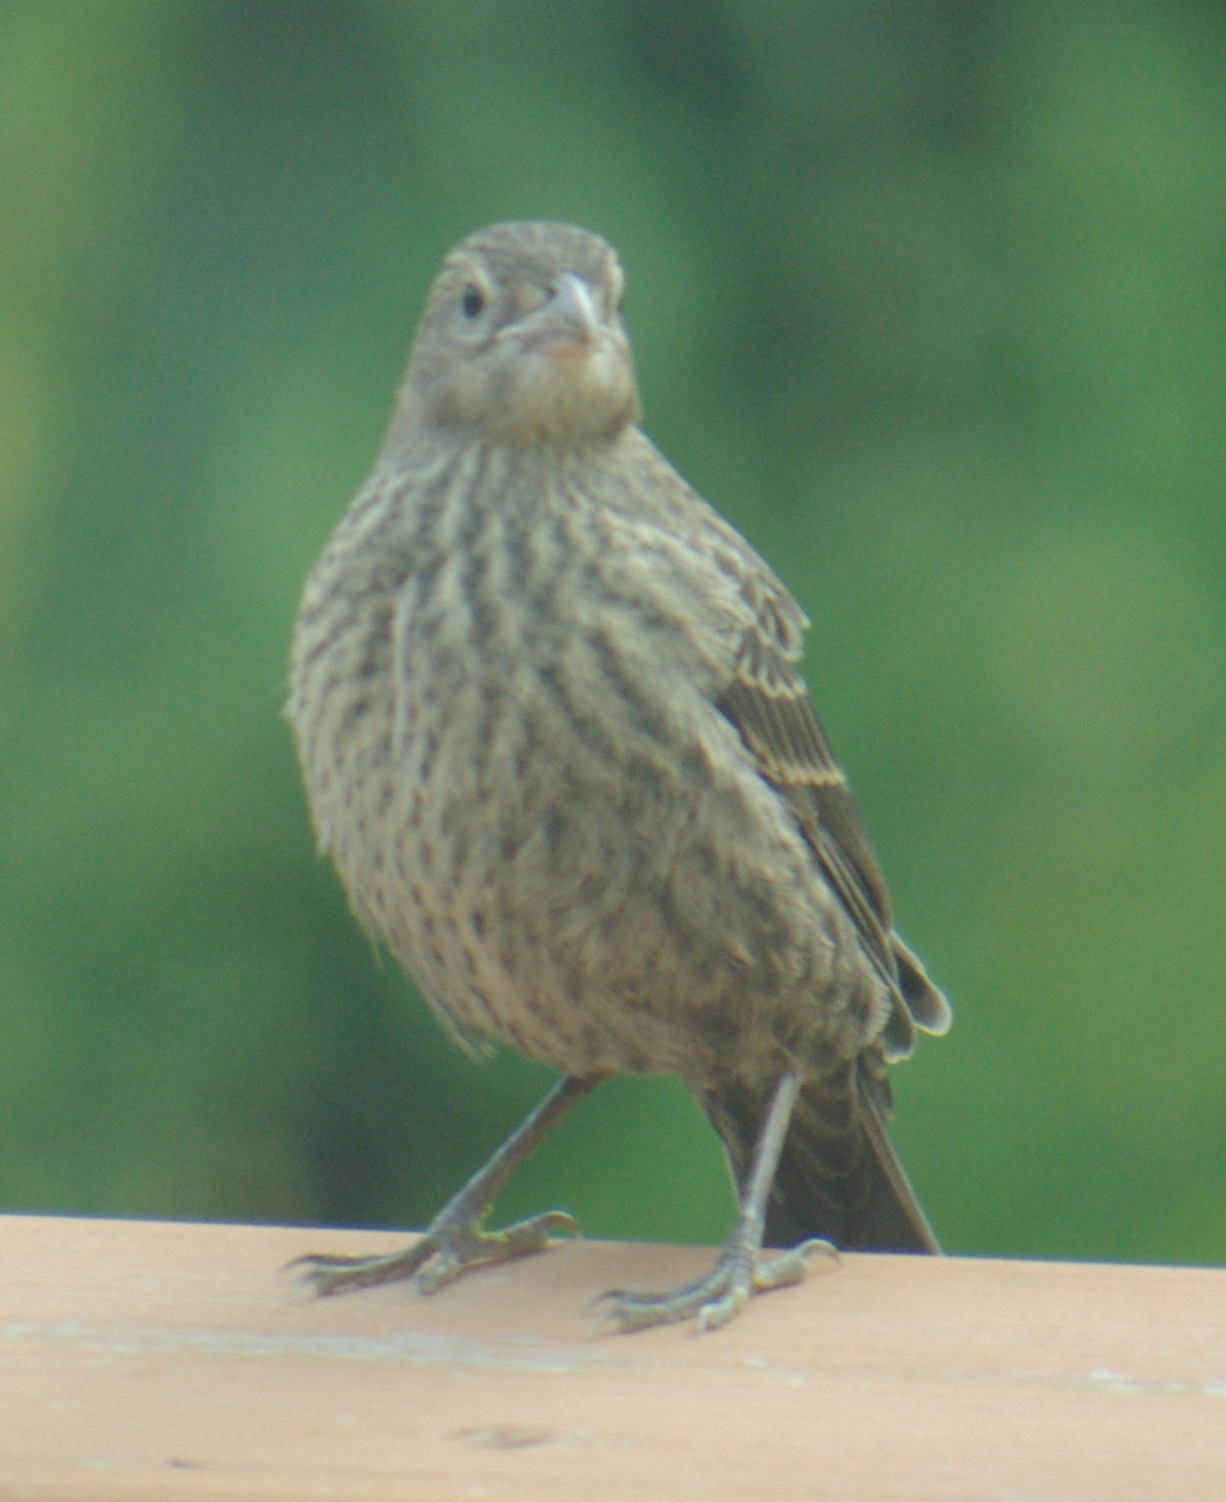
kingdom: Animalia
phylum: Chordata
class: Aves
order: Passeriformes
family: Icteridae
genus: Molothrus
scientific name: Molothrus ater
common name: Brown-headed cowbird
